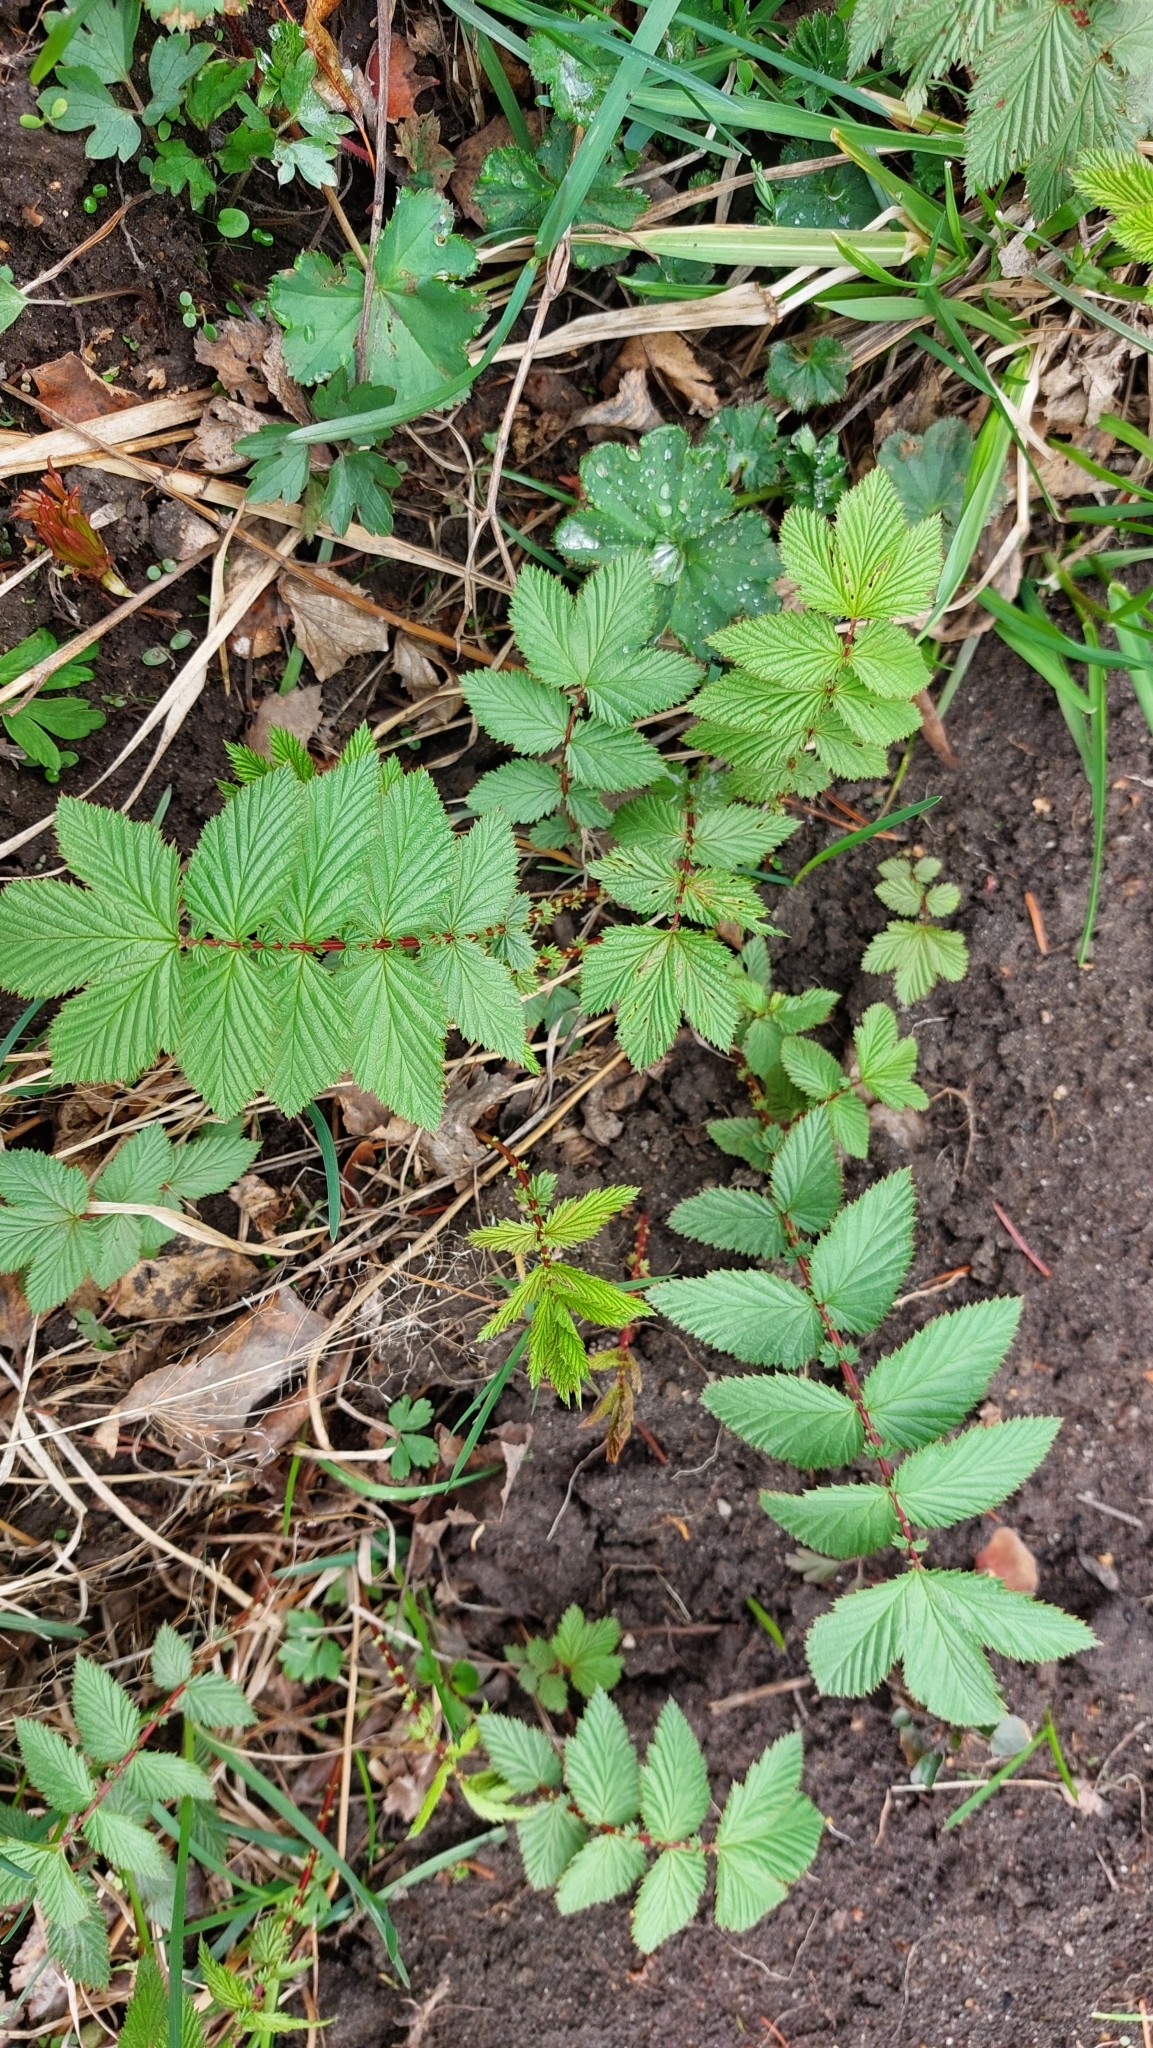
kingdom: Plantae
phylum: Tracheophyta
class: Magnoliopsida
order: Rosales
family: Rosaceae
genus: Filipendula
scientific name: Filipendula ulmaria
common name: Meadowsweet
